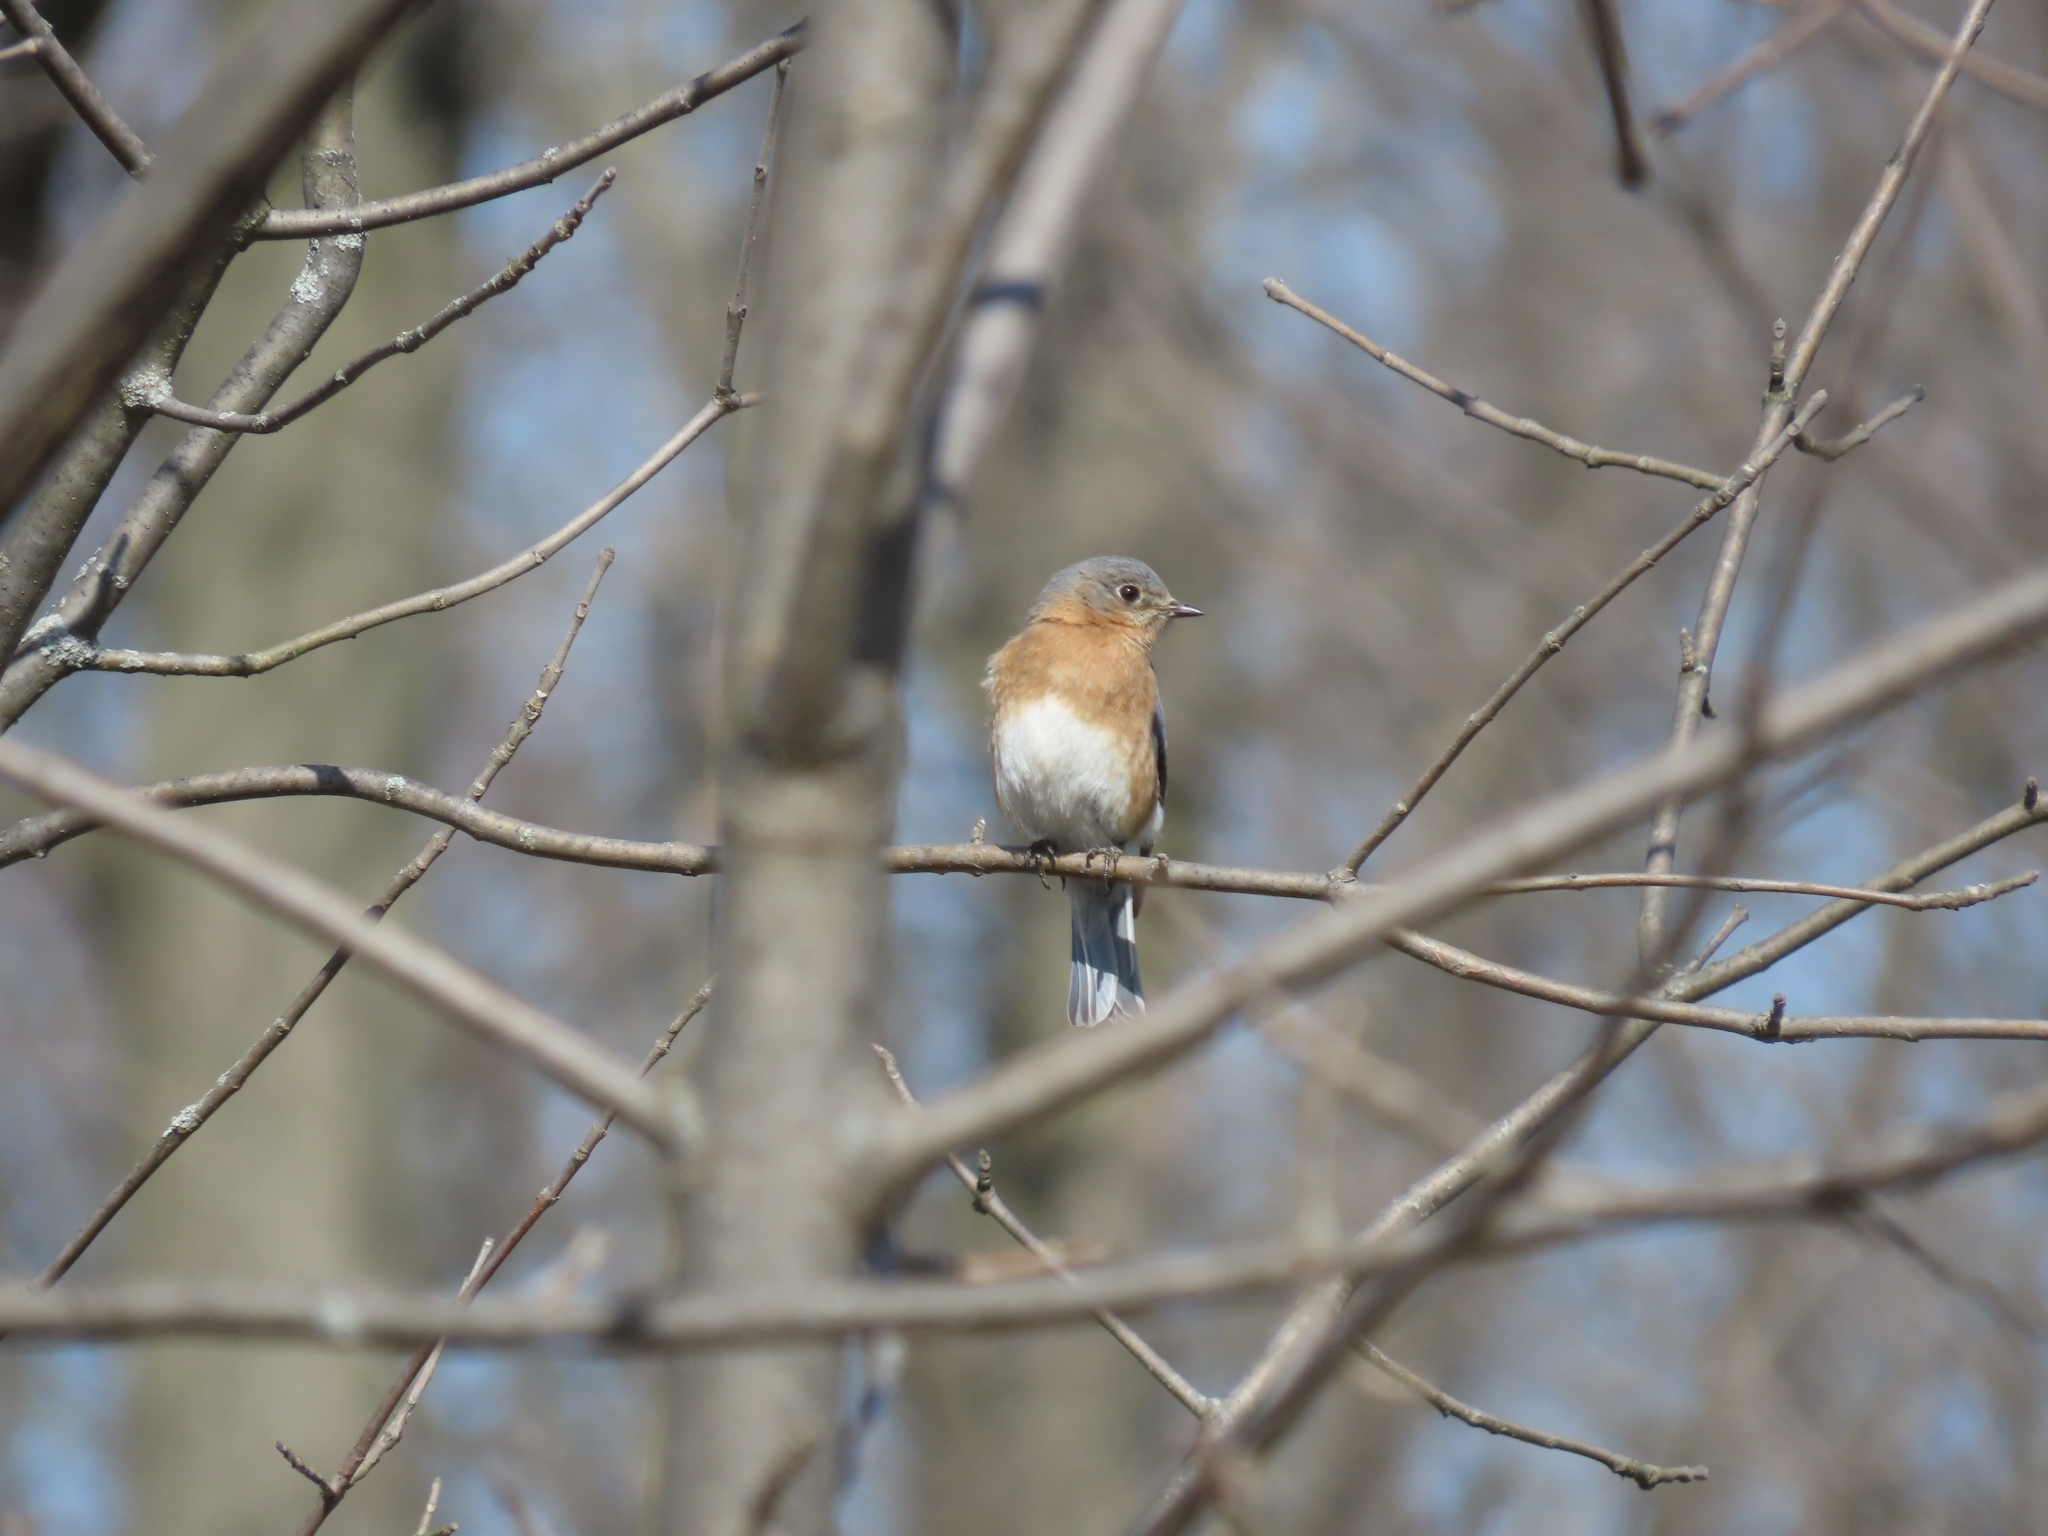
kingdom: Animalia
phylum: Chordata
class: Aves
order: Passeriformes
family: Turdidae
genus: Sialia
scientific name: Sialia sialis
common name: Eastern bluebird
